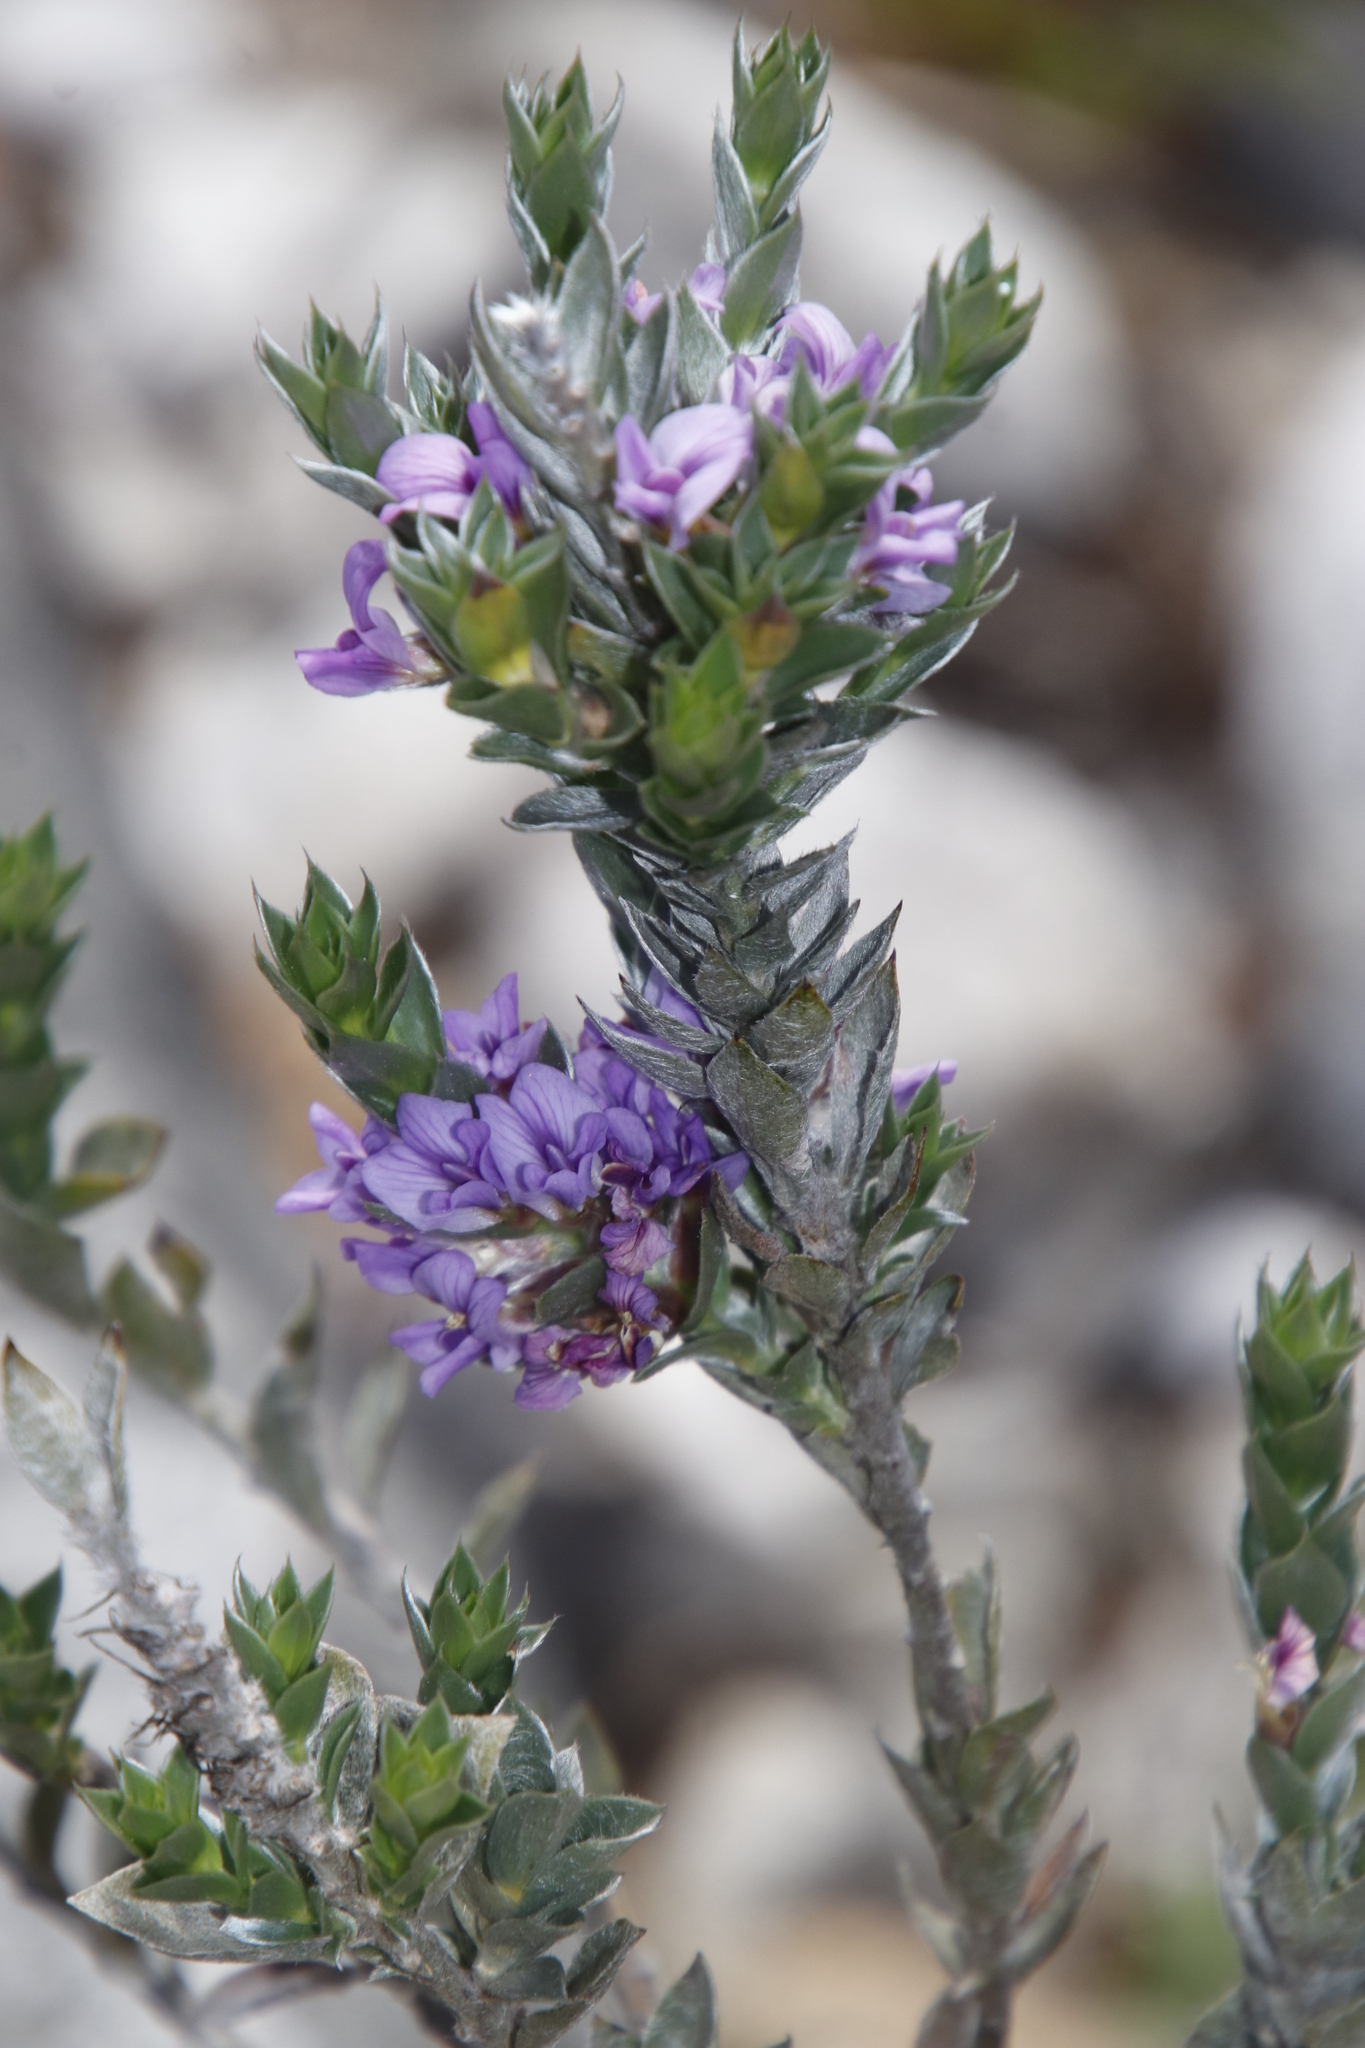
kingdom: Plantae
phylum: Tracheophyta
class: Magnoliopsida
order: Fabales
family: Fabaceae
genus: Amphithalea
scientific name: Amphithalea imbricata
